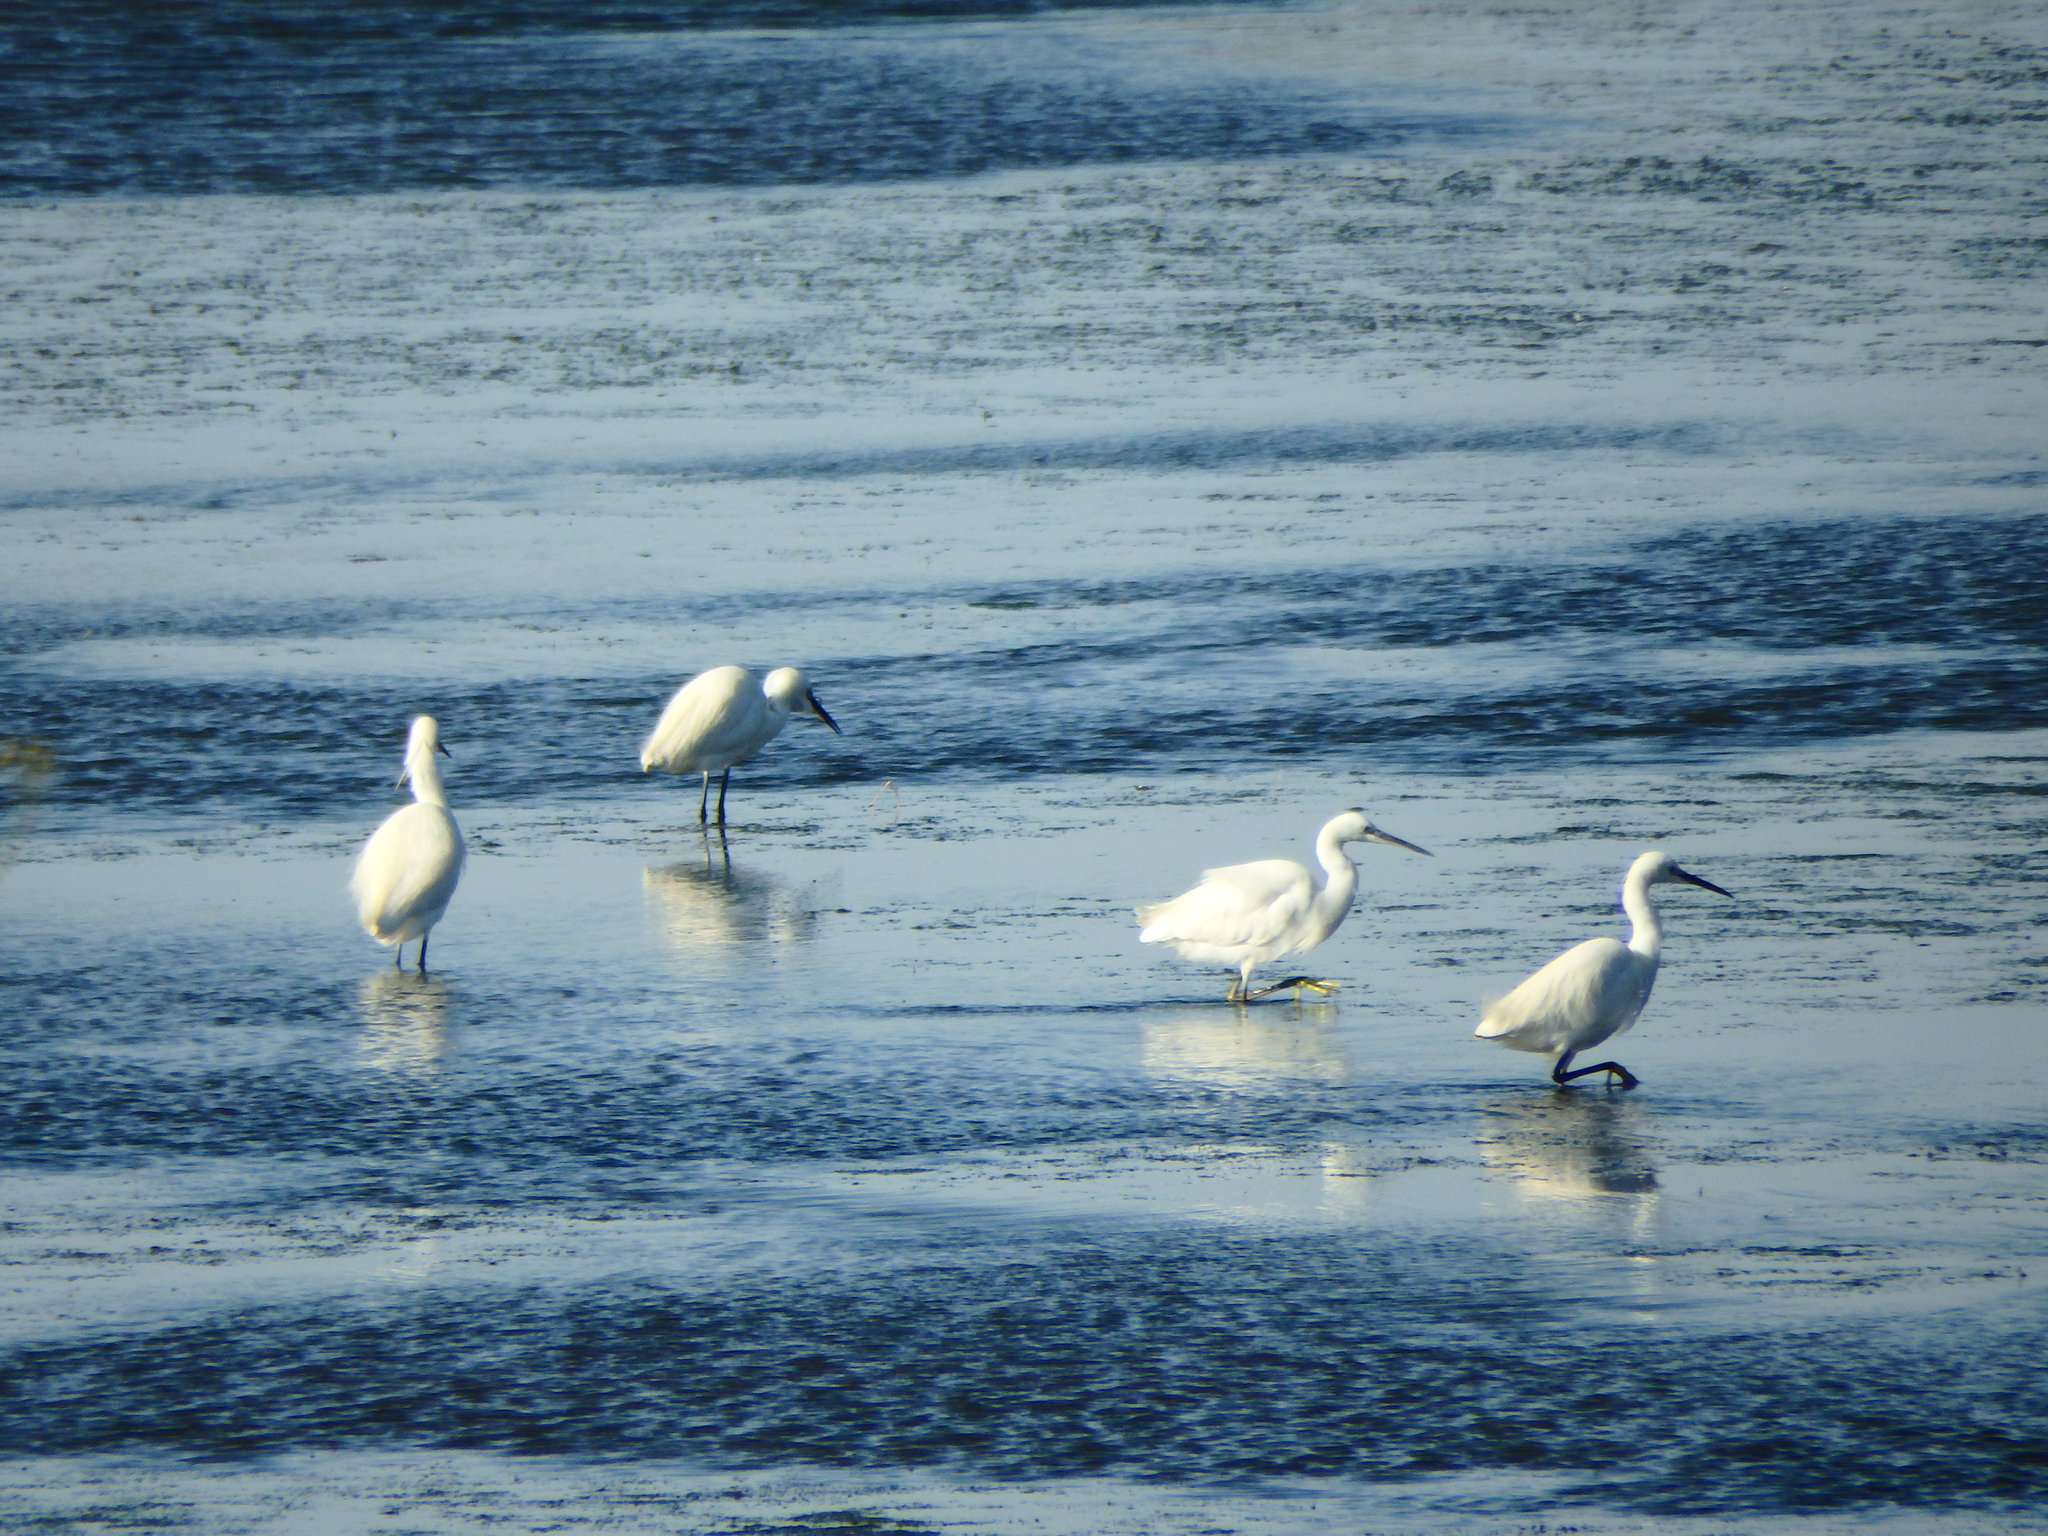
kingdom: Animalia
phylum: Chordata
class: Aves
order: Pelecaniformes
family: Ardeidae
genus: Egretta
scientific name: Egretta garzetta
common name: Little egret
